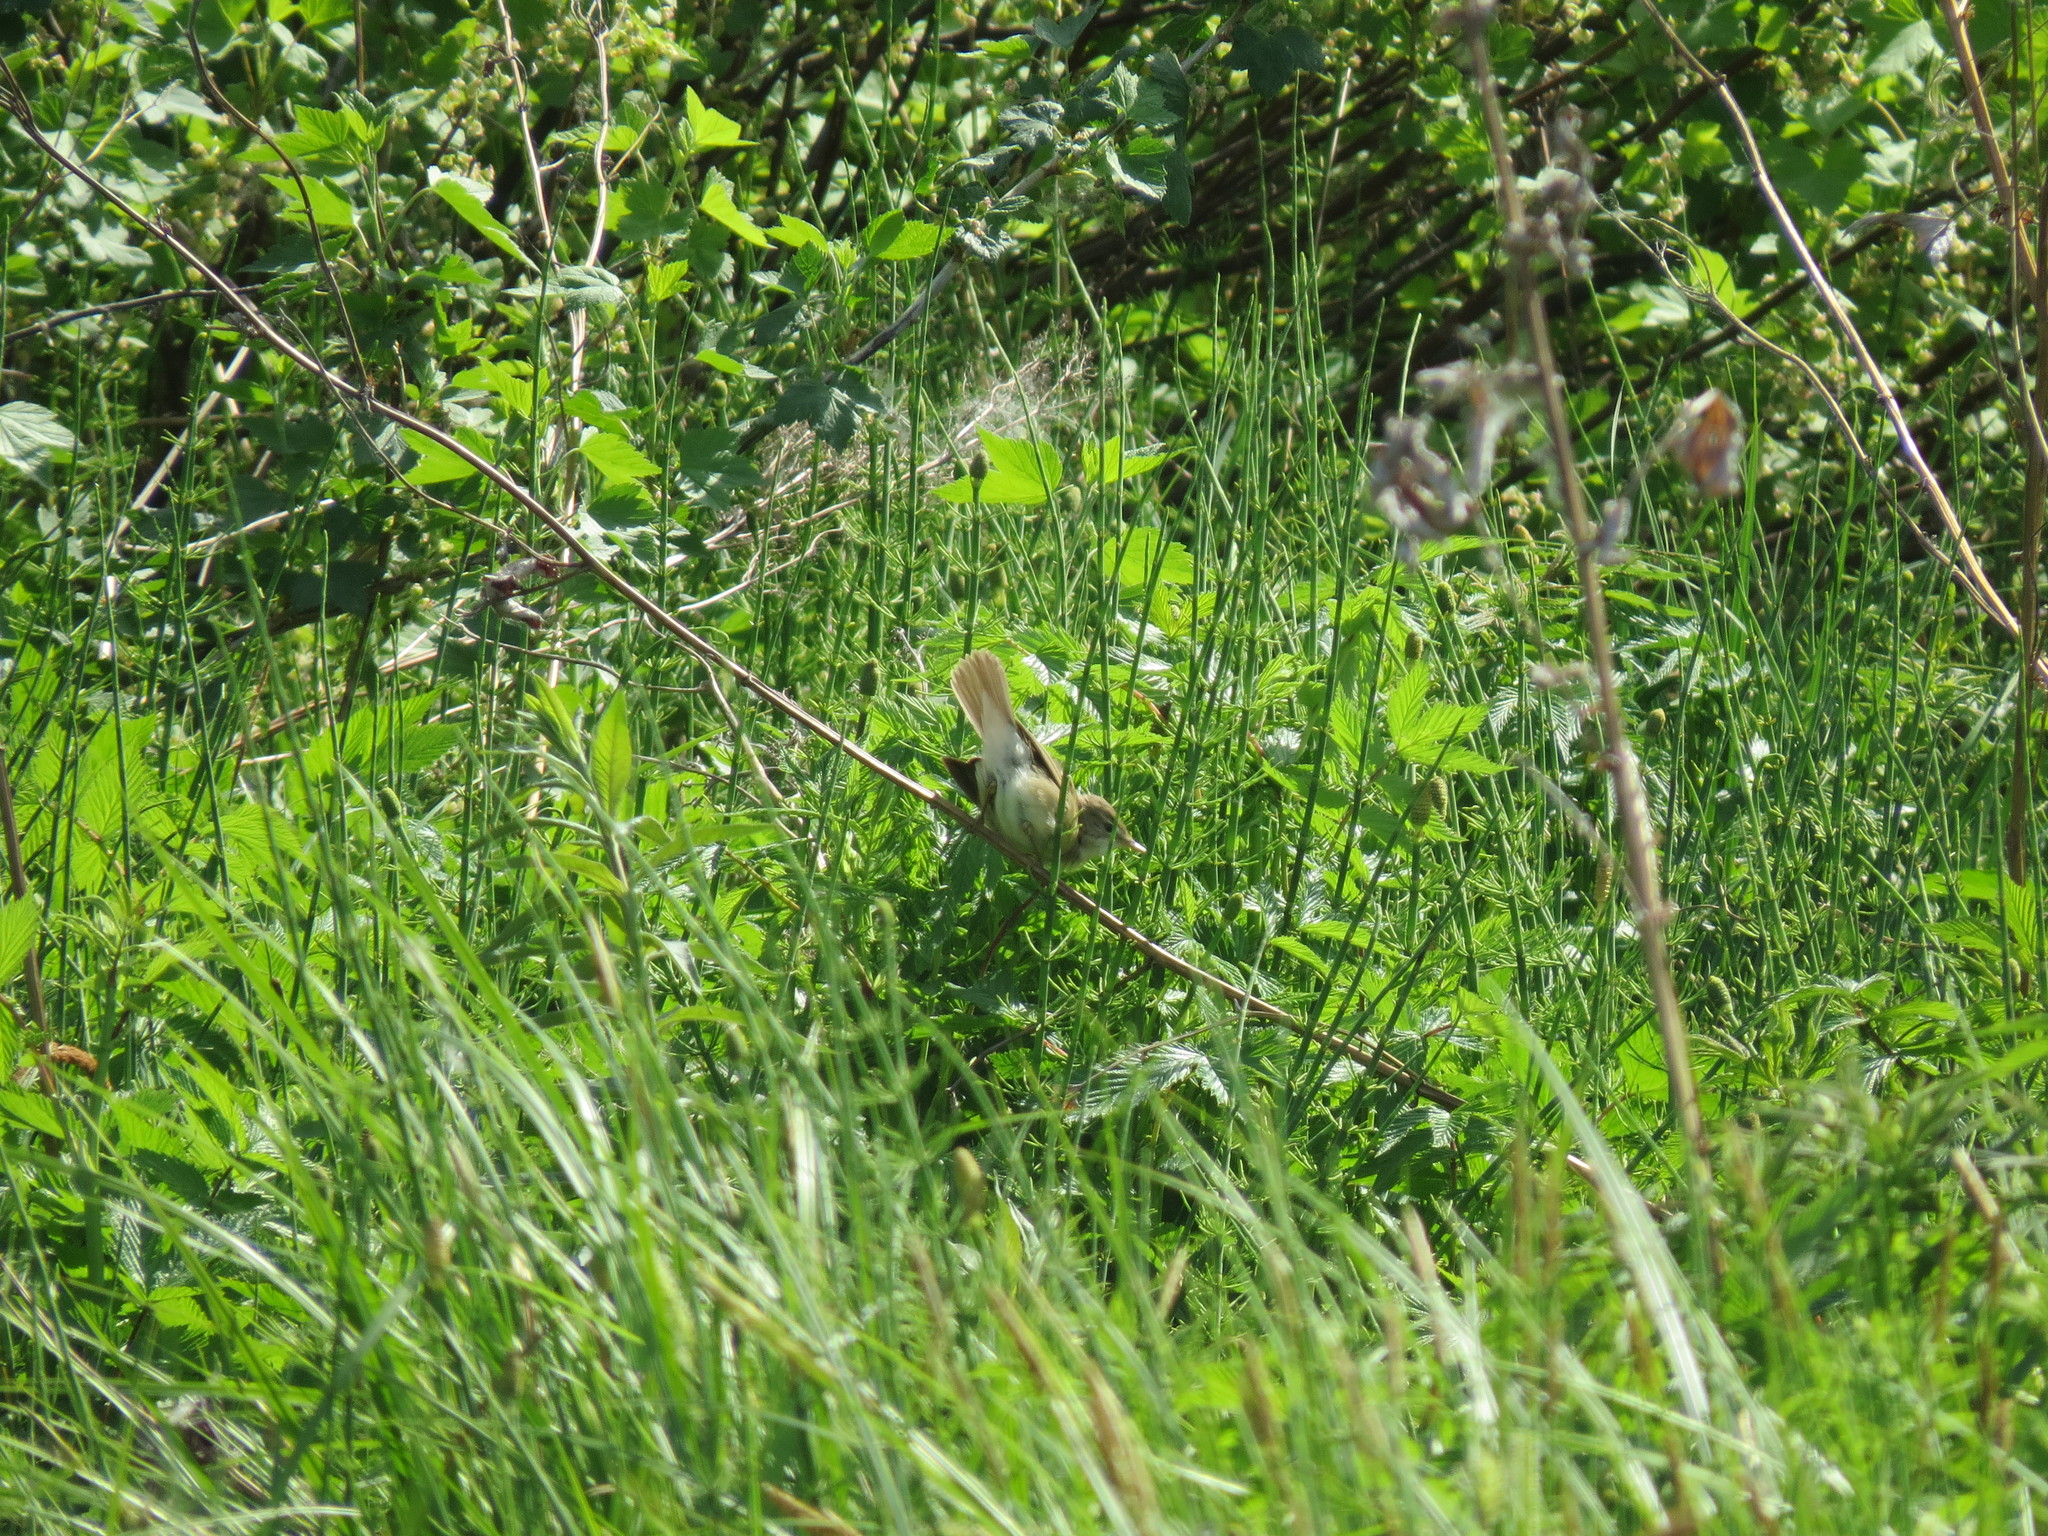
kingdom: Animalia
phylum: Chordata
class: Aves
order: Passeriformes
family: Acrocephalidae
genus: Acrocephalus
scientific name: Acrocephalus dumetorum
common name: Blyth's reed warbler
